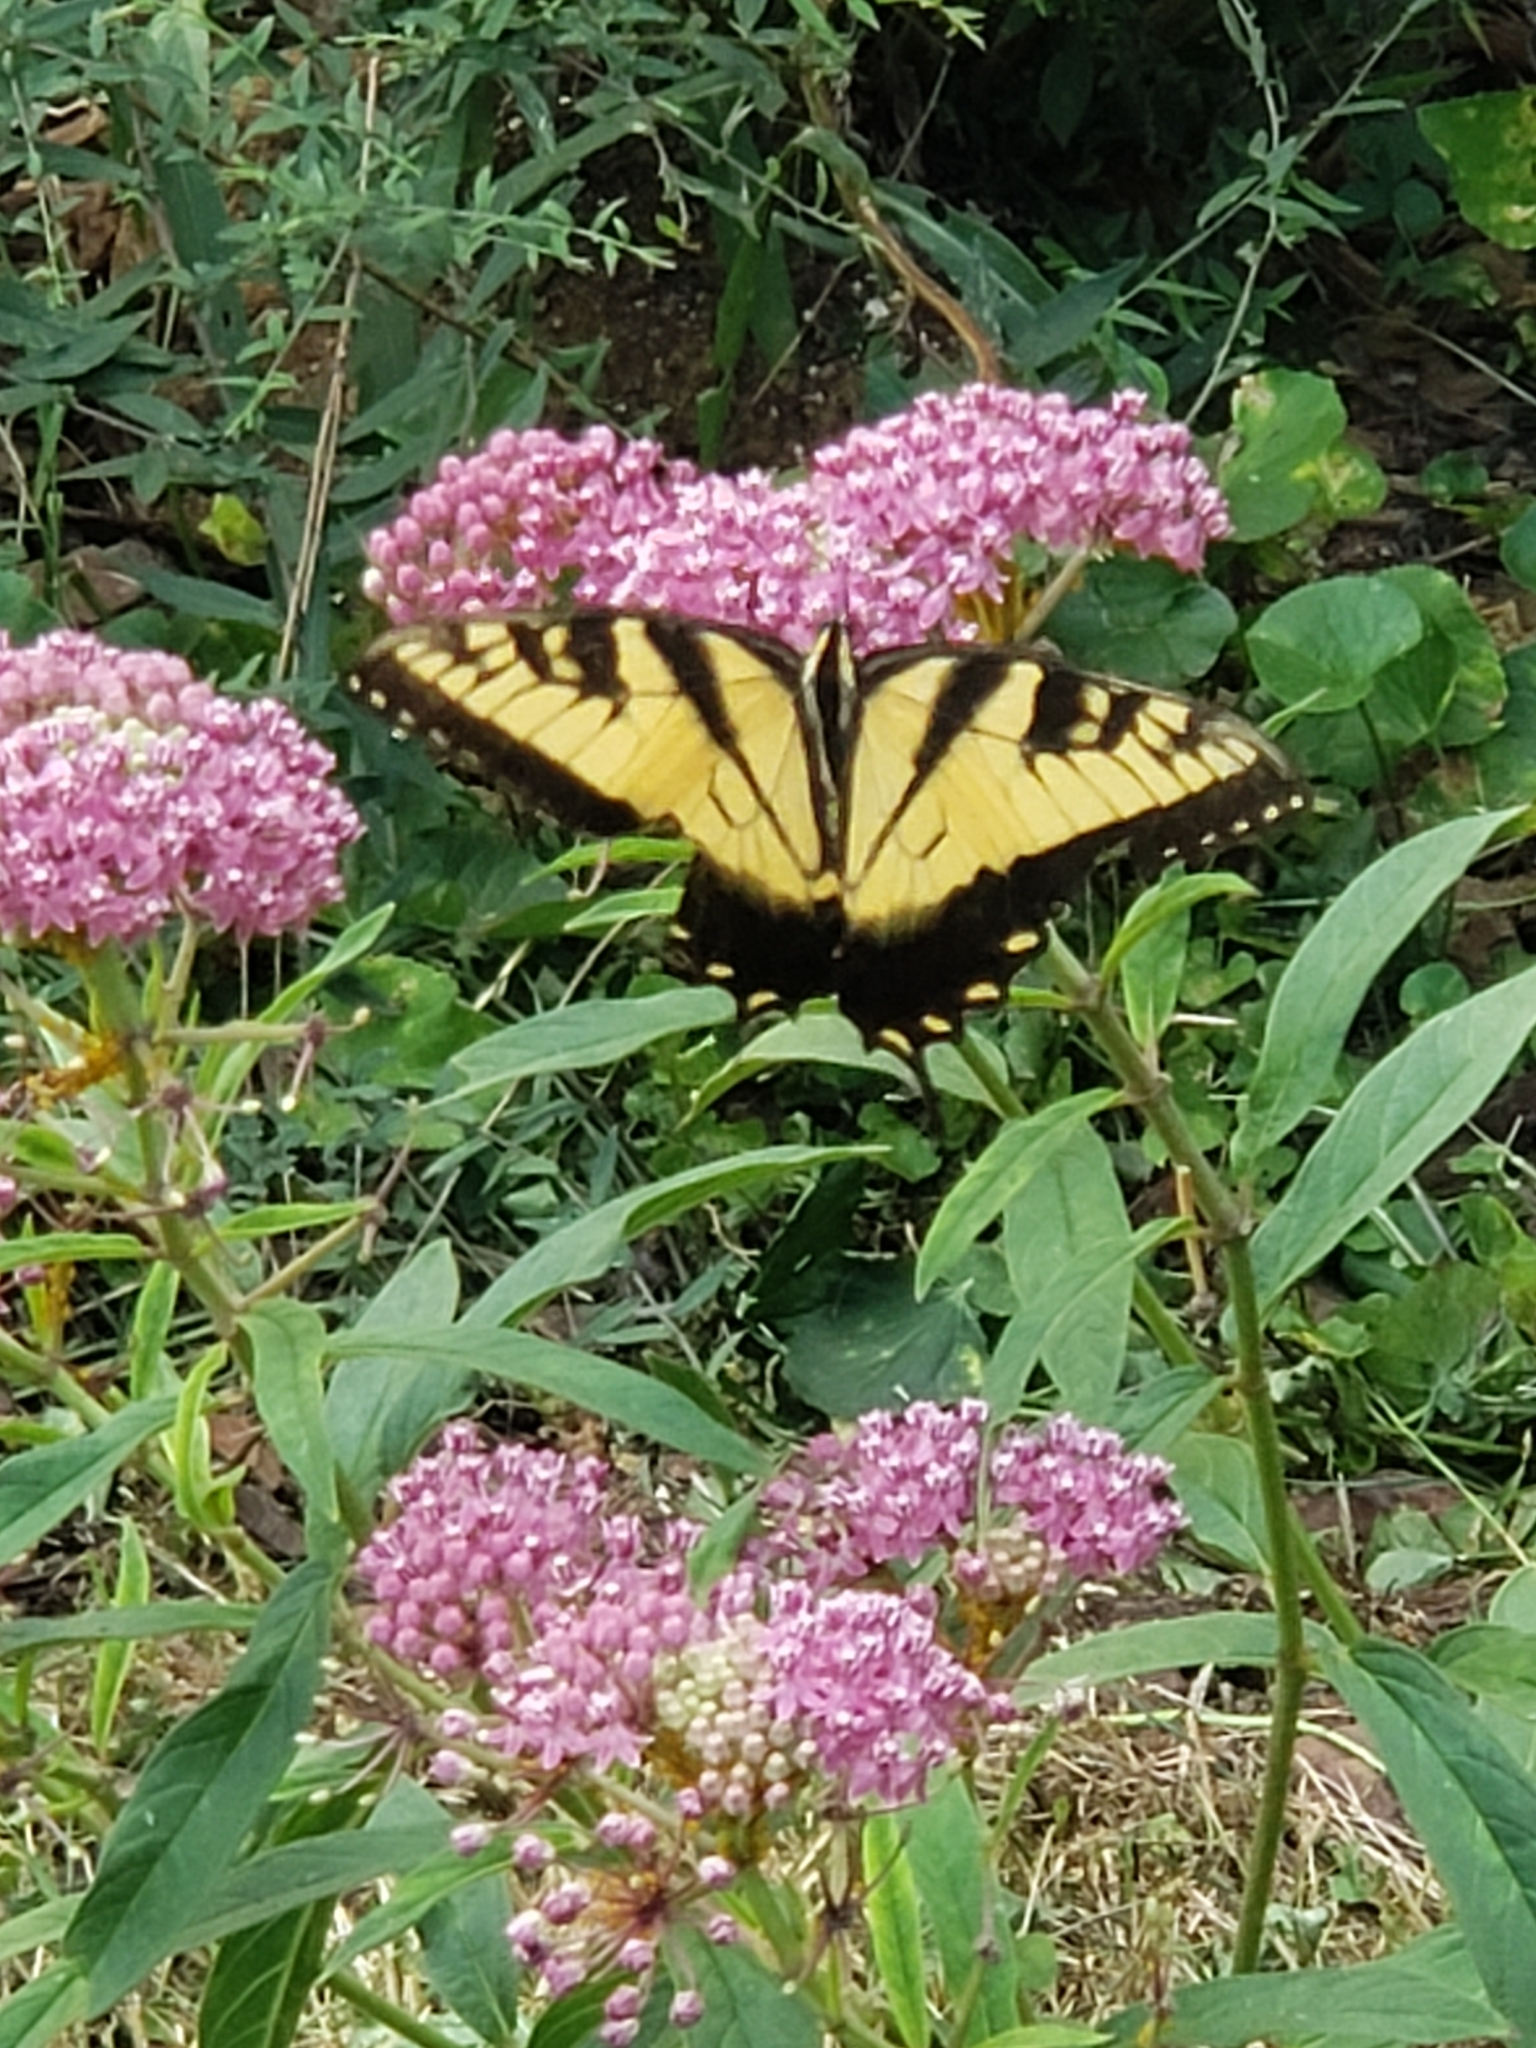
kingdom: Animalia
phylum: Arthropoda
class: Insecta
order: Lepidoptera
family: Papilionidae
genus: Papilio
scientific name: Papilio glaucus
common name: Tiger swallowtail
